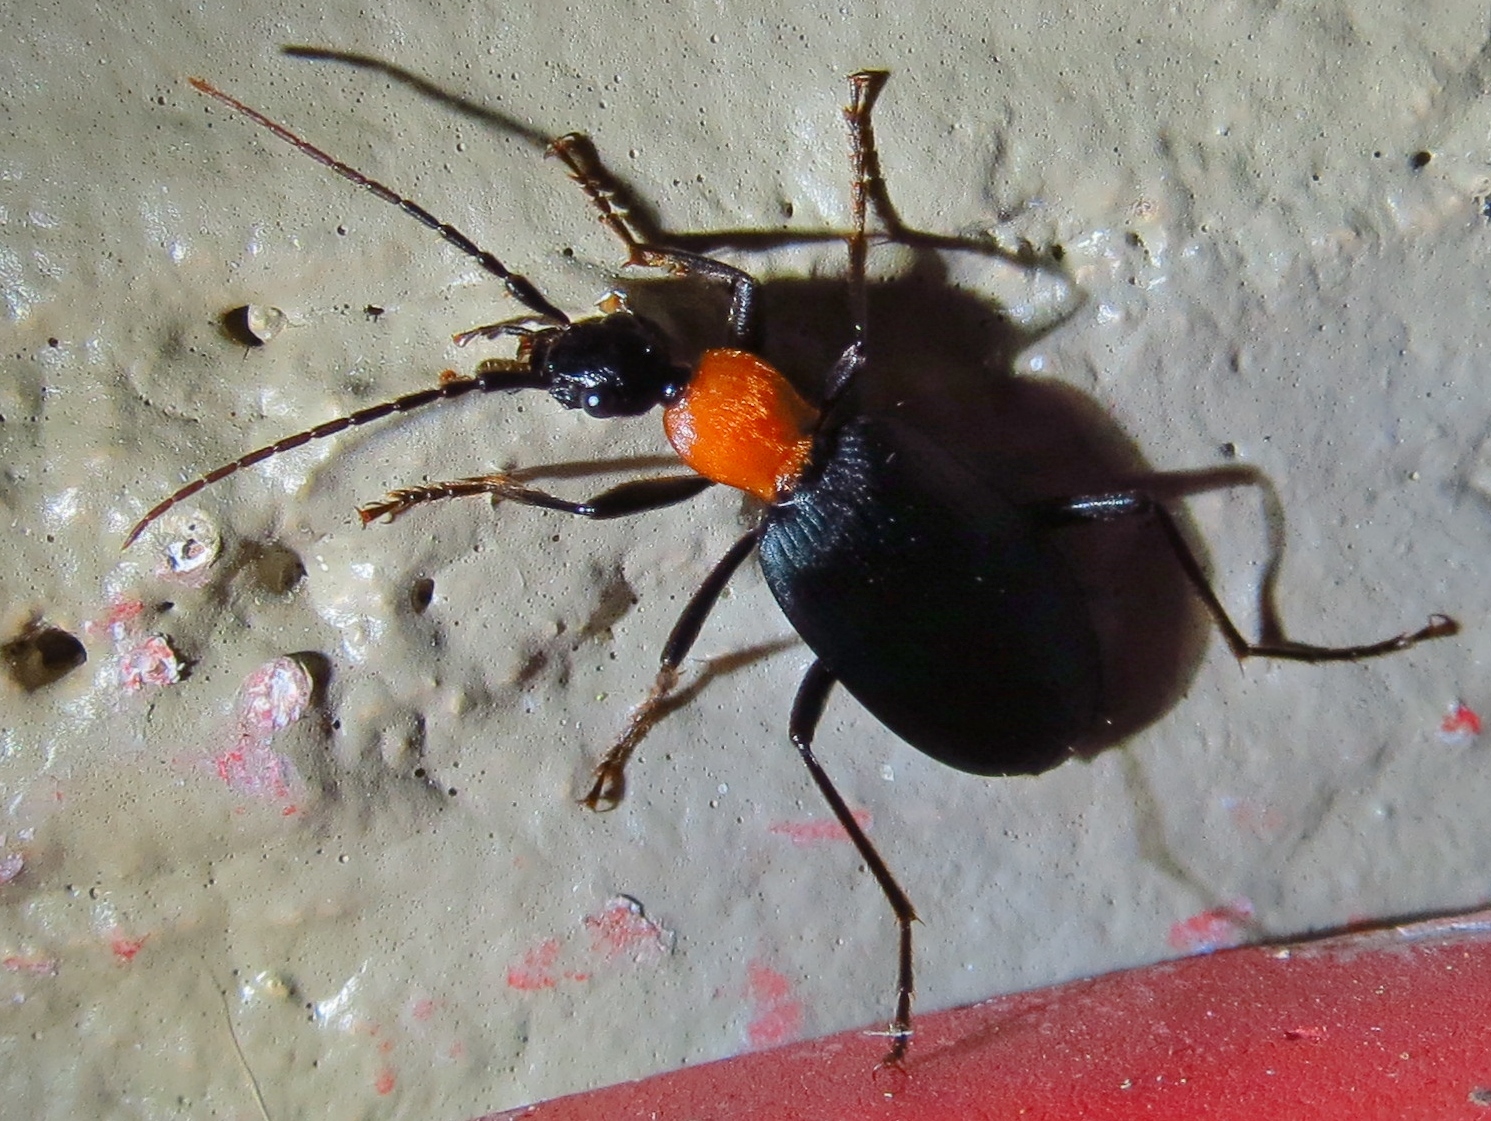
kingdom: Animalia
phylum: Arthropoda
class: Insecta
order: Coleoptera
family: Carabidae
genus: Galerita
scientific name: Galerita mexicana
